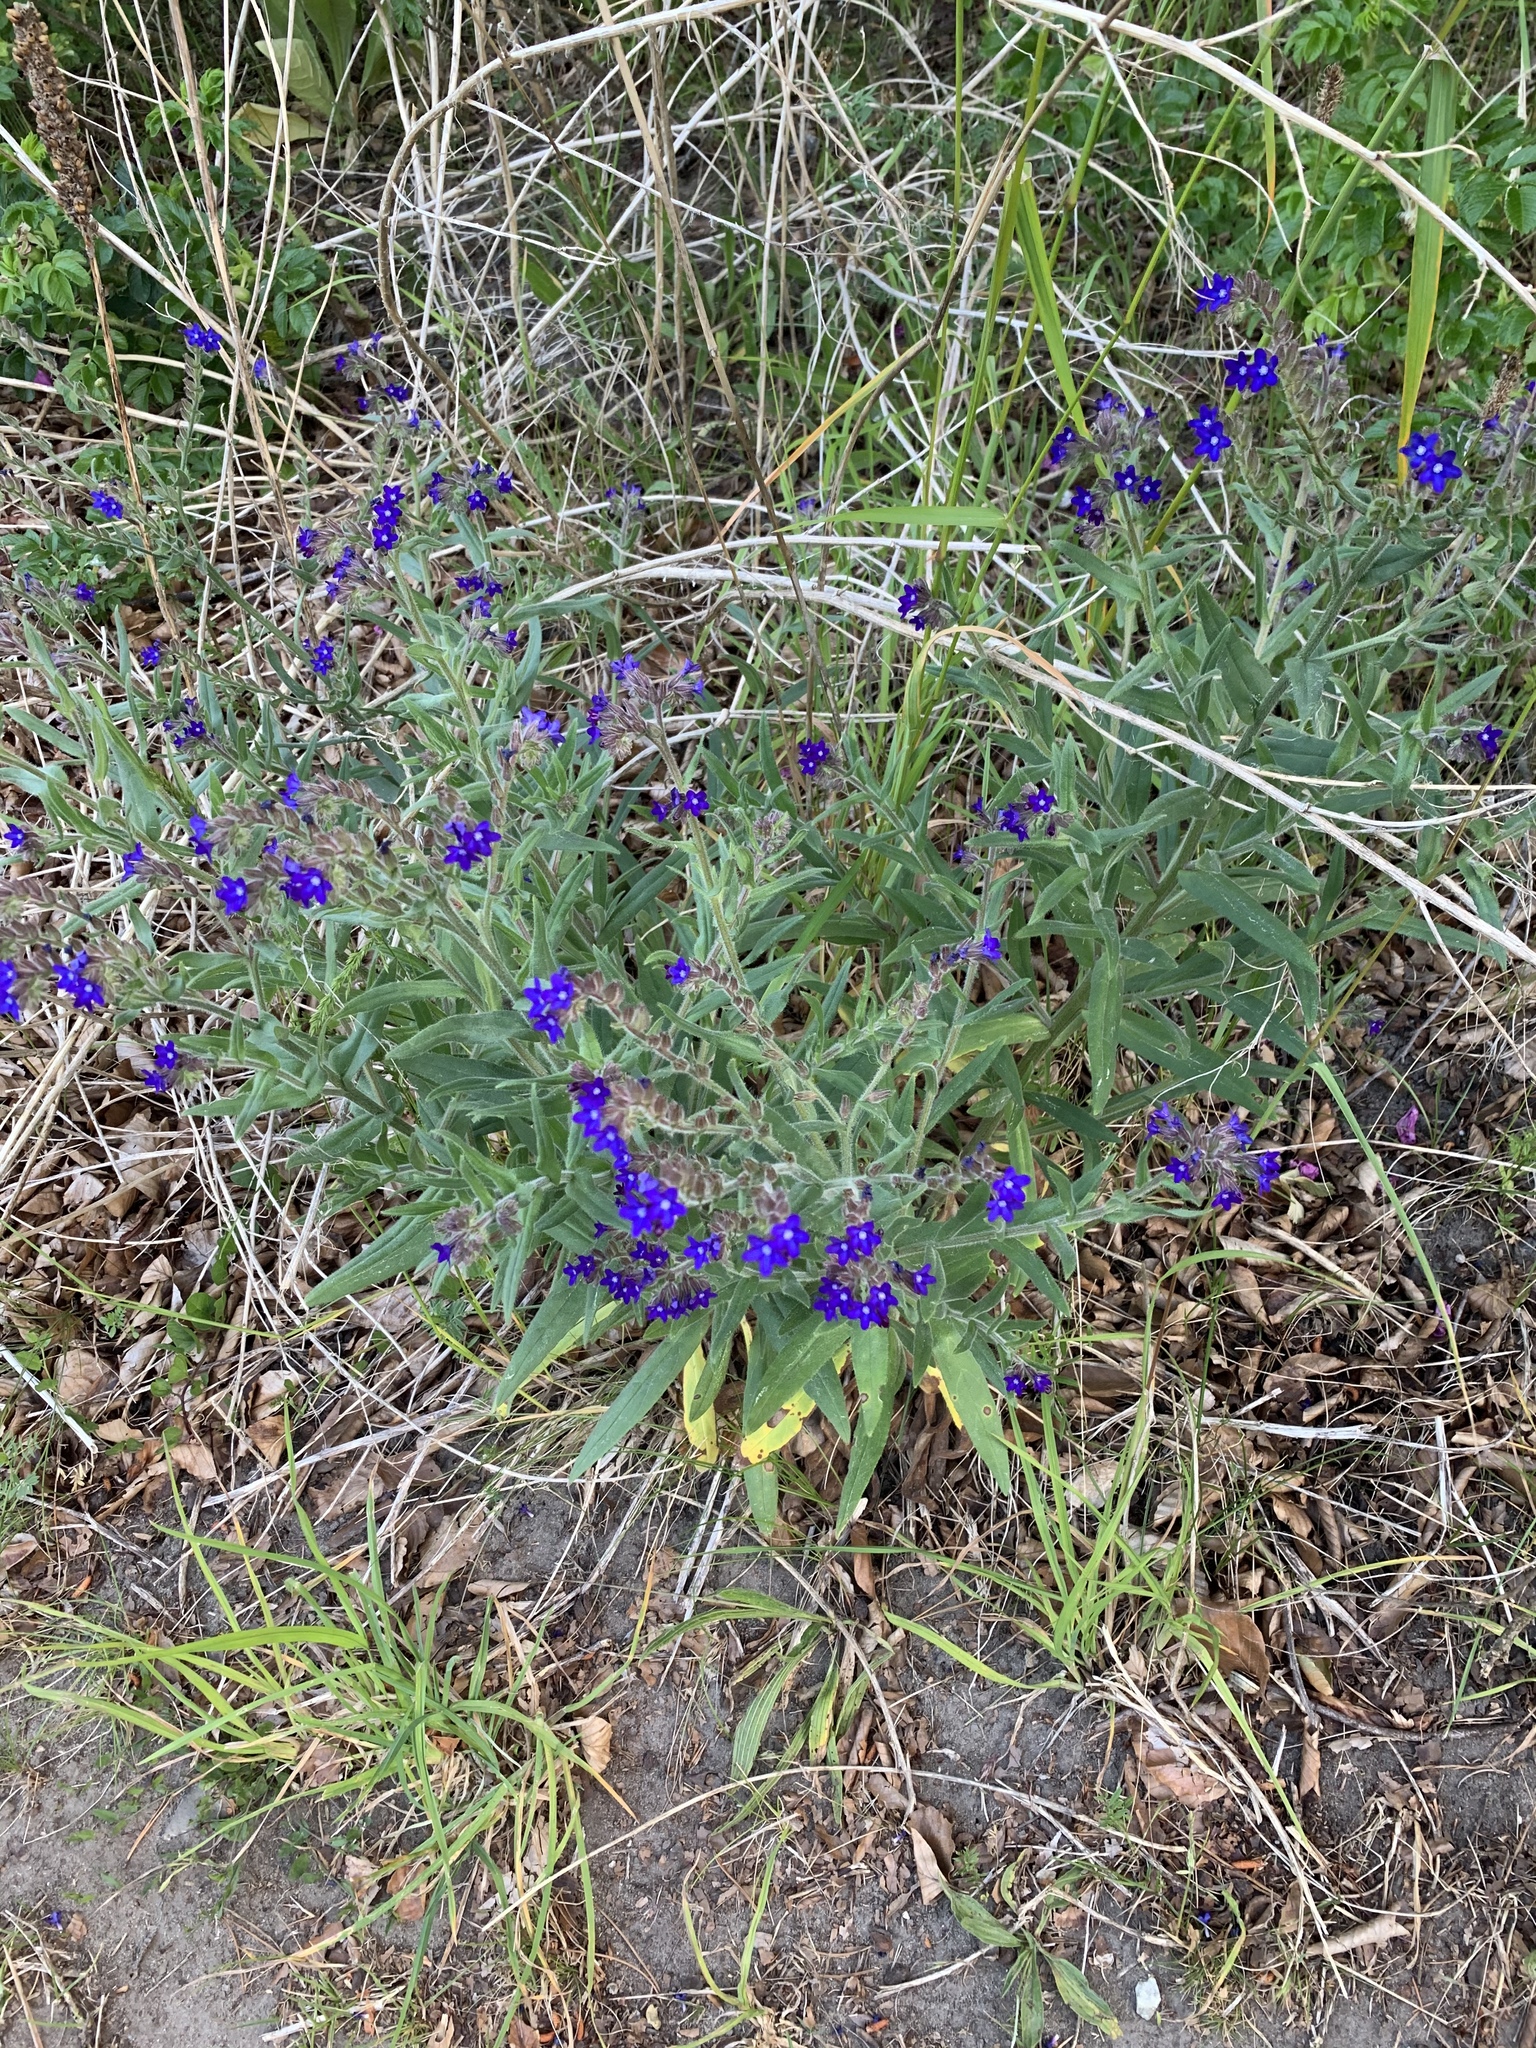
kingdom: Plantae
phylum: Tracheophyta
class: Magnoliopsida
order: Boraginales
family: Boraginaceae
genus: Anchusa
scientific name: Anchusa officinalis
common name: Alkanet
